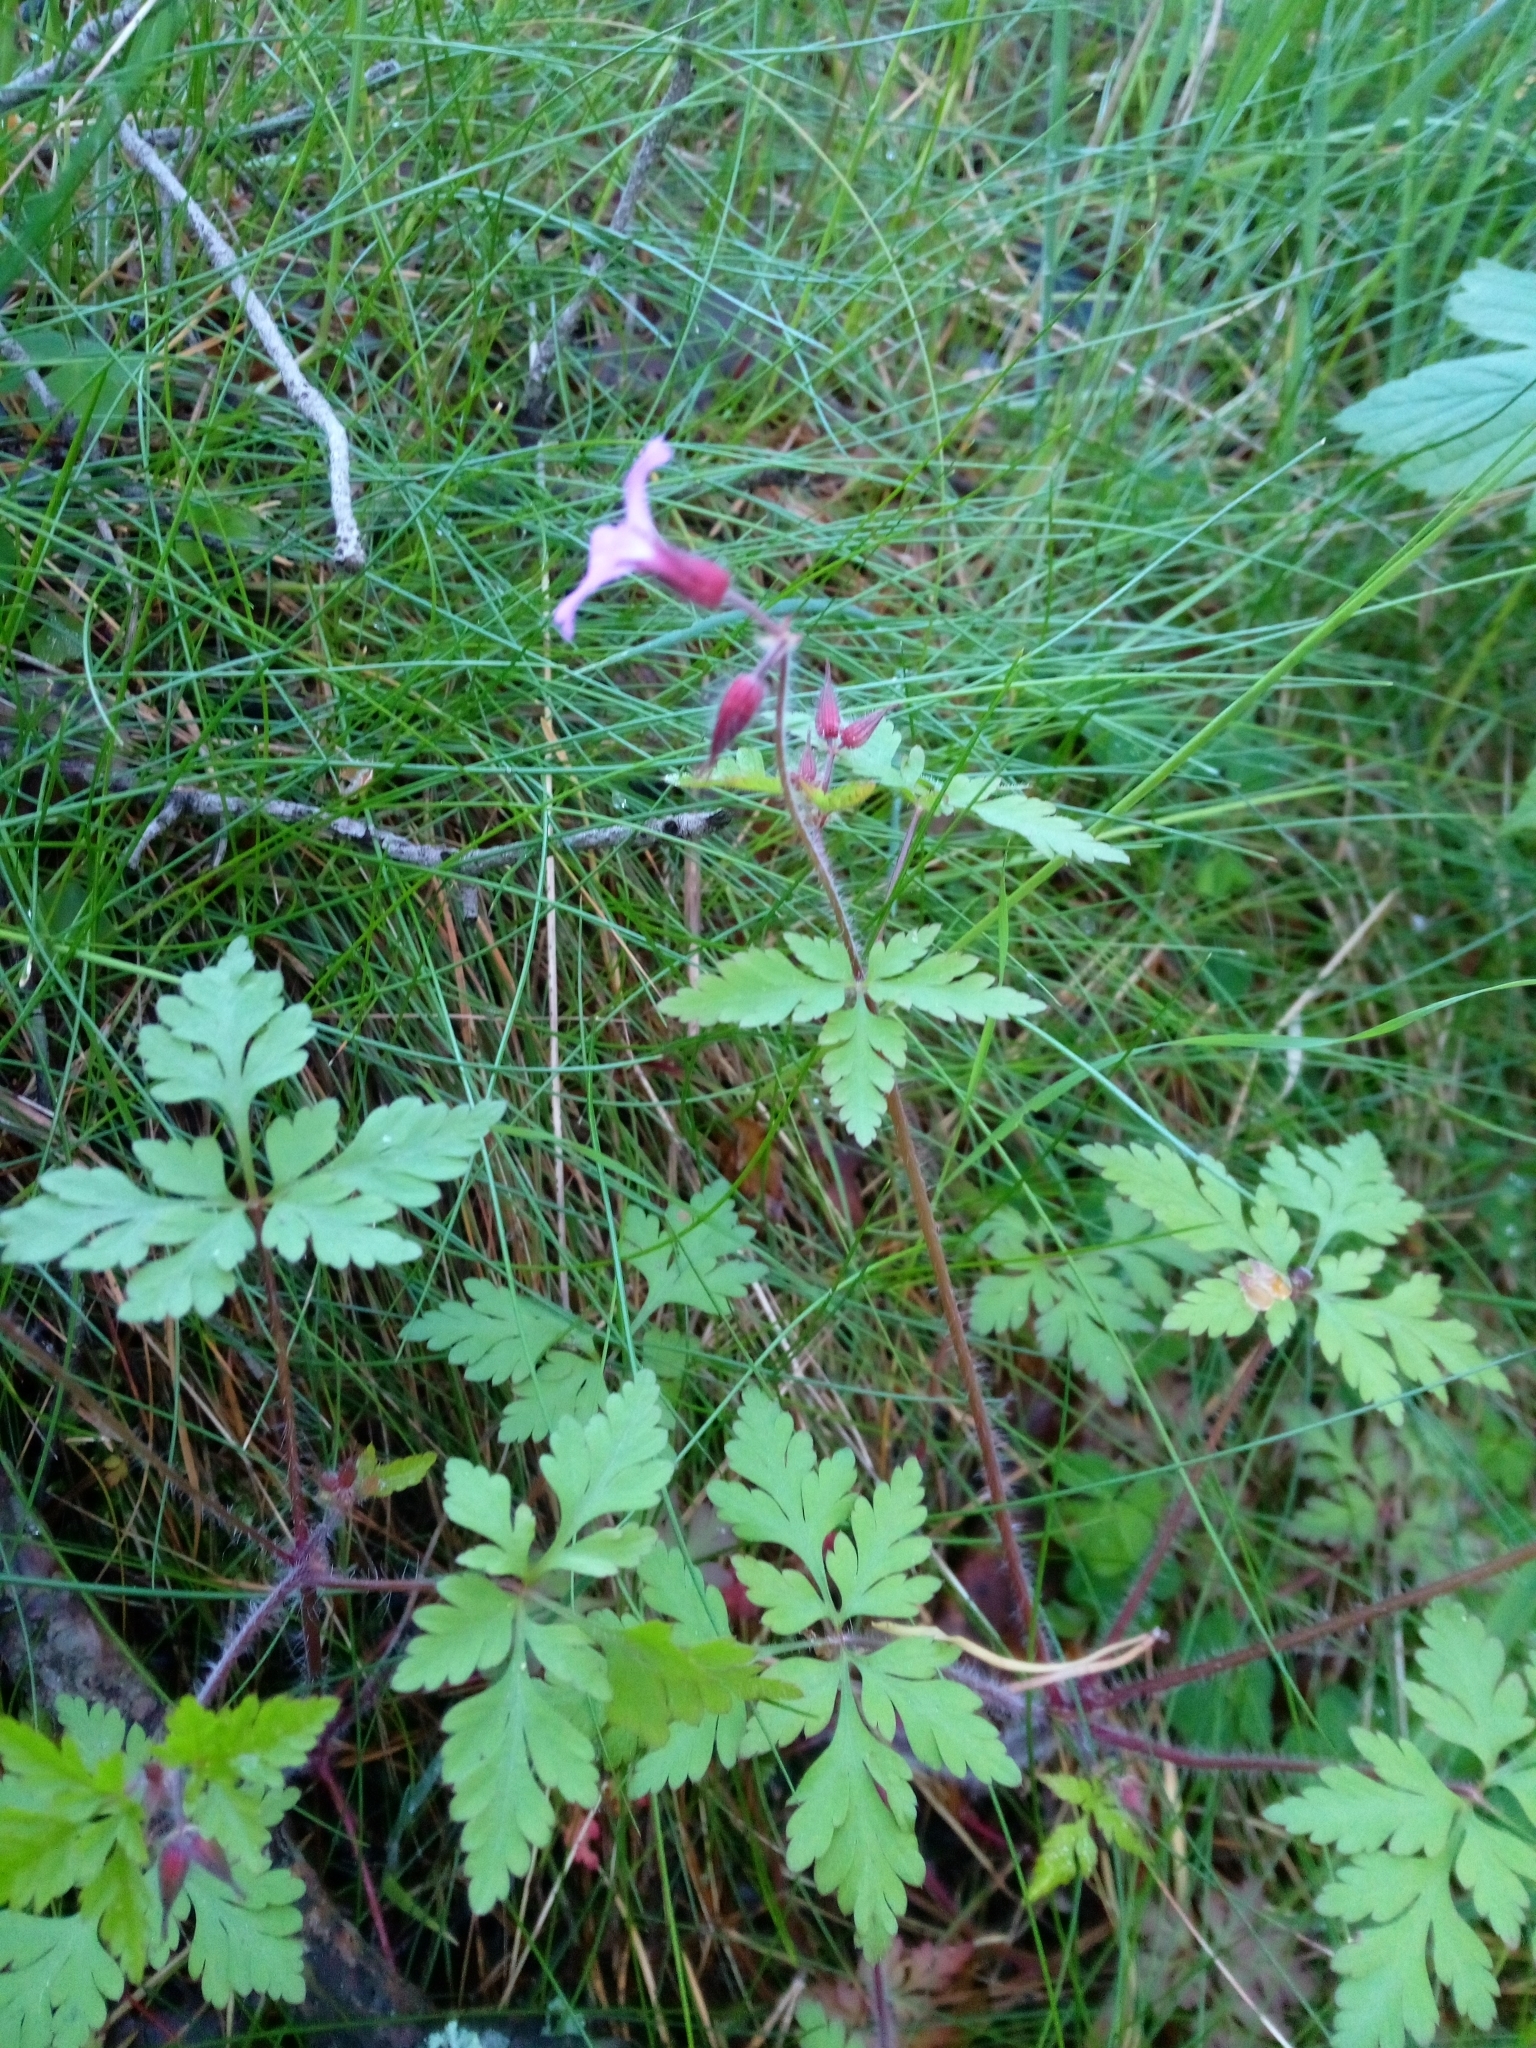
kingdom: Plantae
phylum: Tracheophyta
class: Magnoliopsida
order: Geraniales
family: Geraniaceae
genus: Geranium
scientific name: Geranium robertianum
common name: Herb-robert
